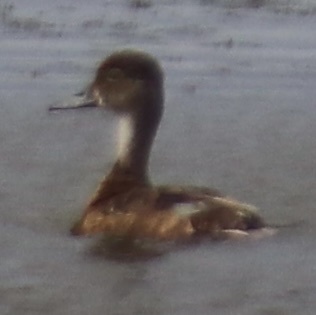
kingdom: Animalia
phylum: Chordata
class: Aves
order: Anseriformes
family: Anatidae
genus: Anas
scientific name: Anas acuta
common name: Northern pintail
